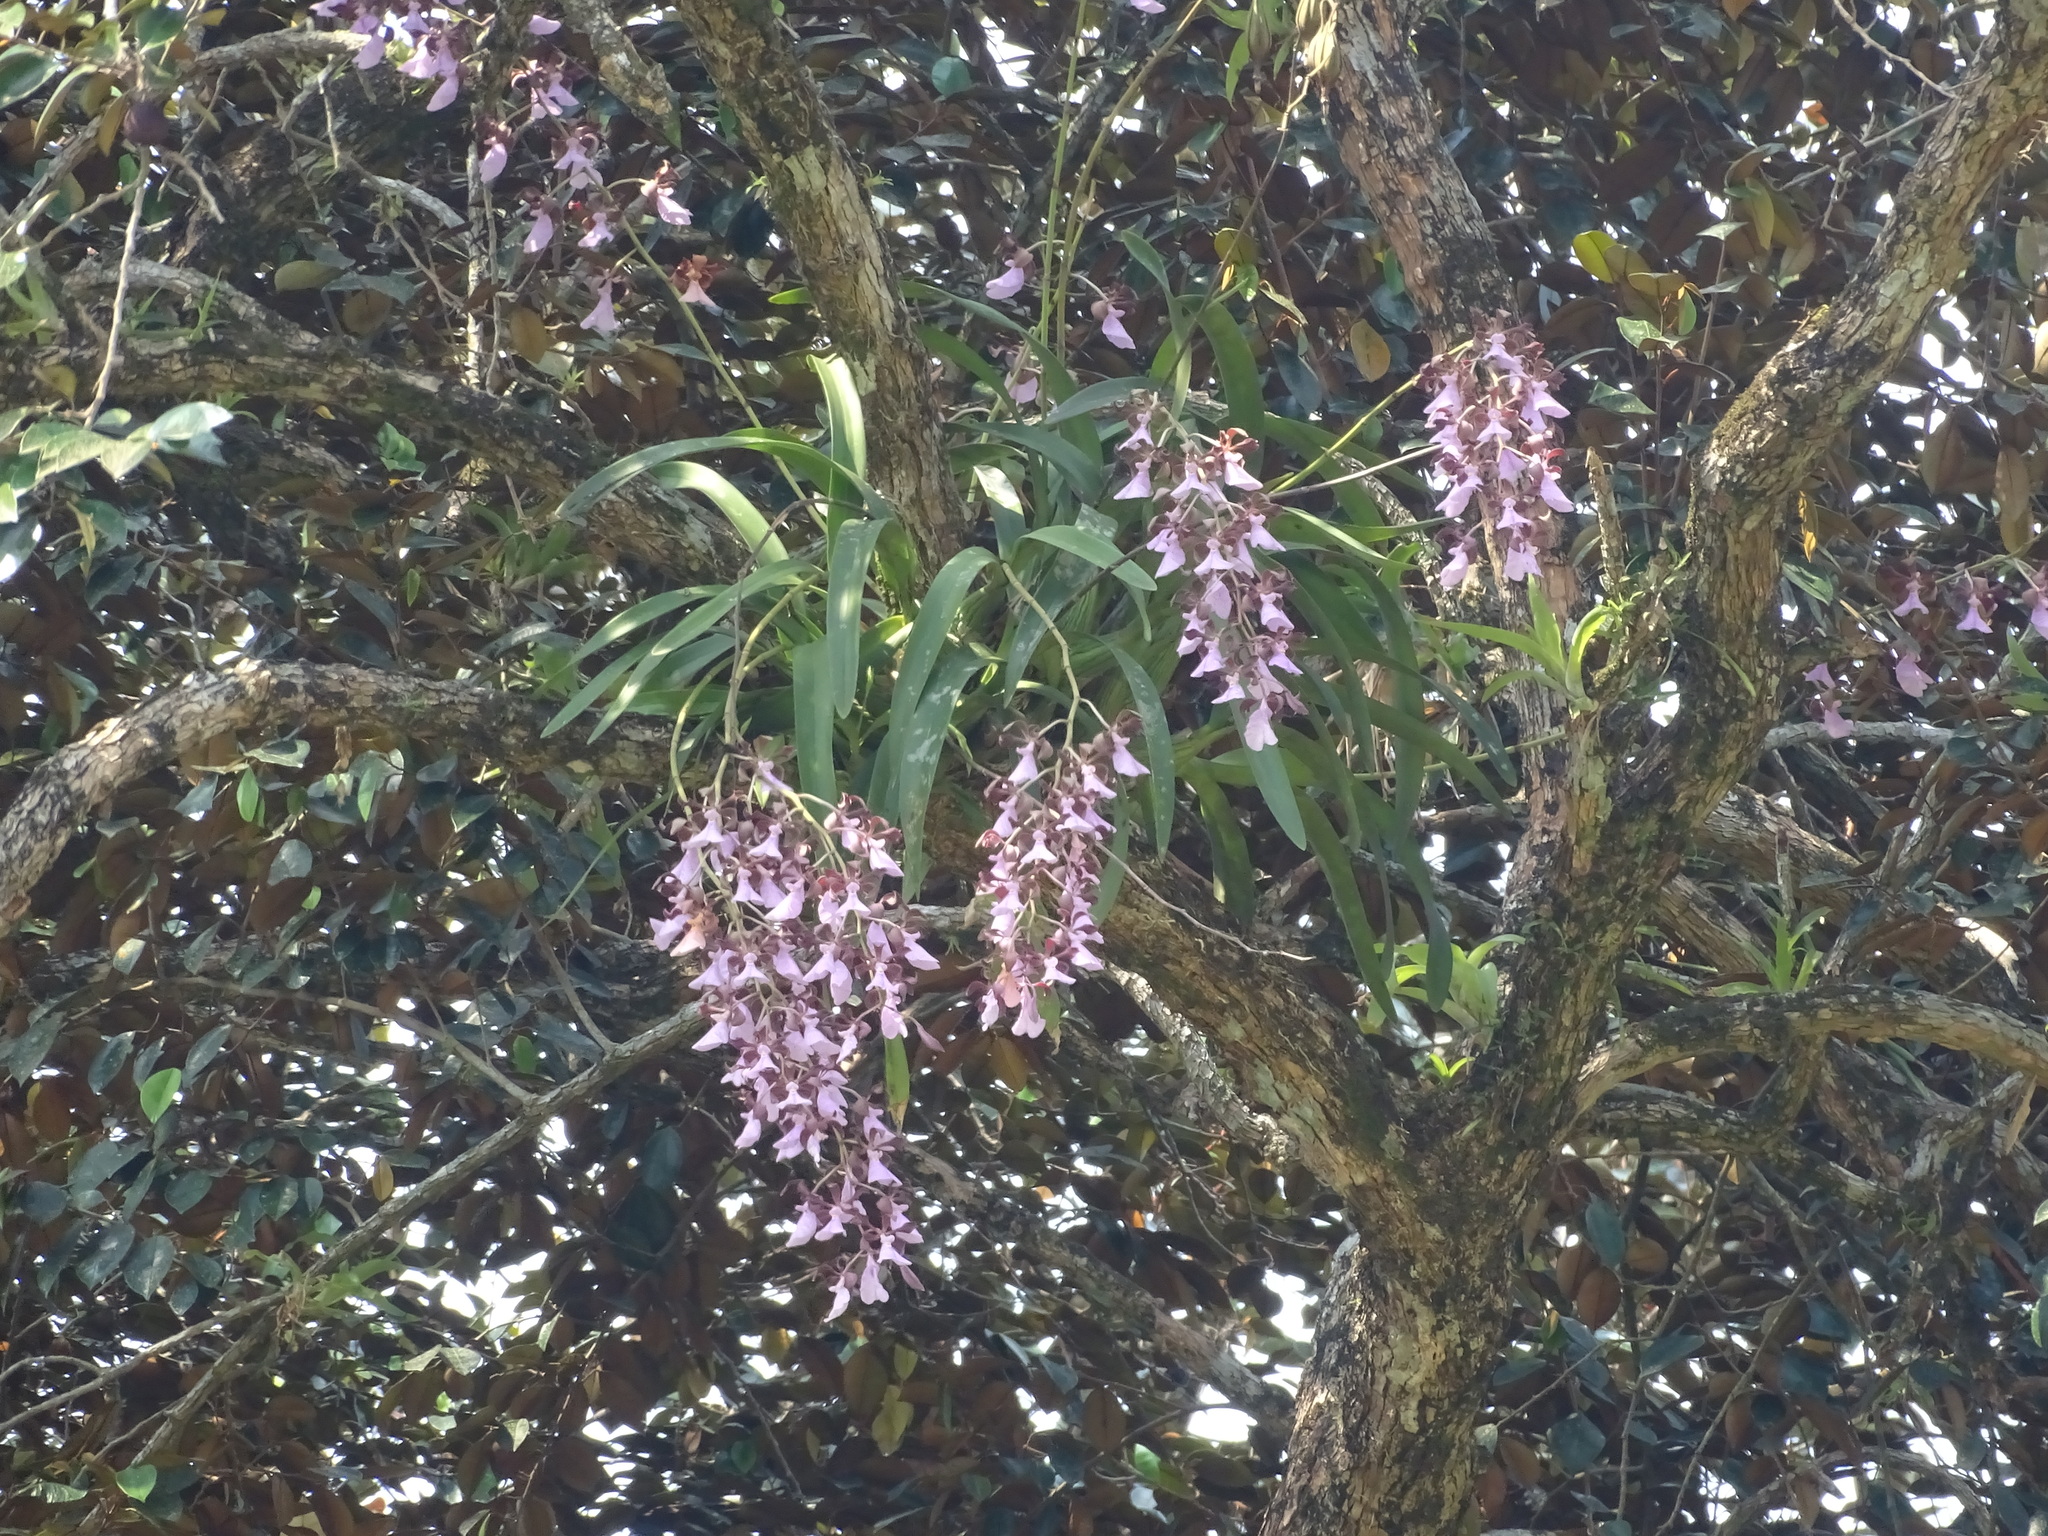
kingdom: Plantae
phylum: Tracheophyta
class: Liliopsida
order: Asparagales
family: Orchidaceae
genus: Encyclia
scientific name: Encyclia cordigera
